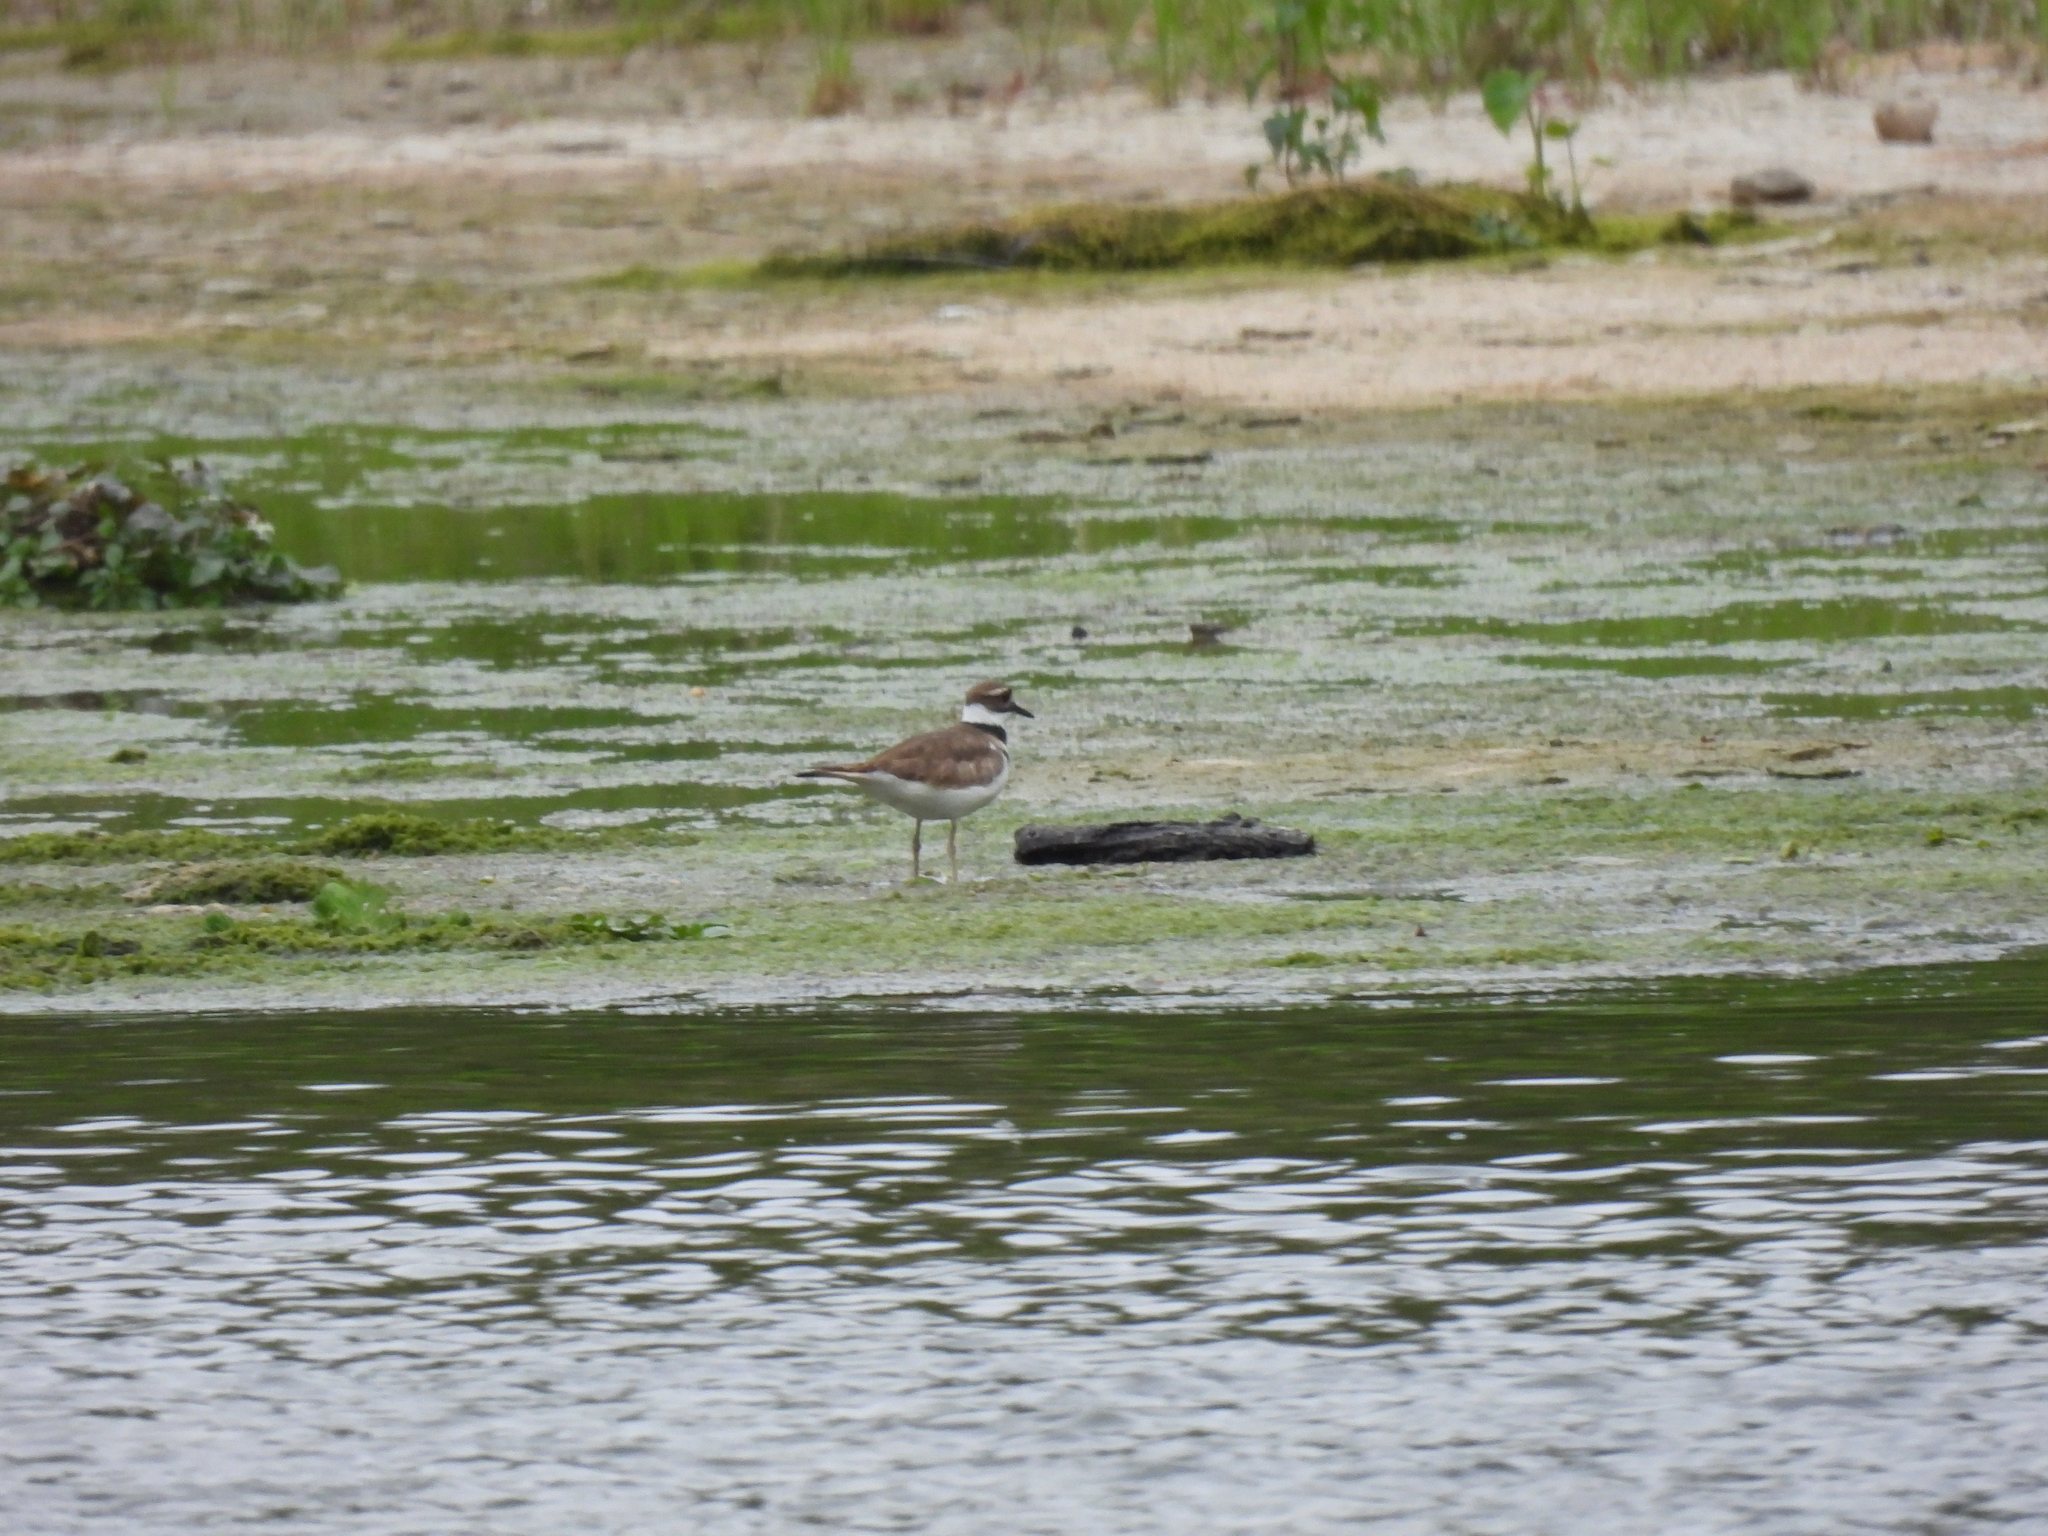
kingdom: Animalia
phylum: Chordata
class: Aves
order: Charadriiformes
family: Charadriidae
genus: Charadrius
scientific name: Charadrius vociferus
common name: Killdeer
